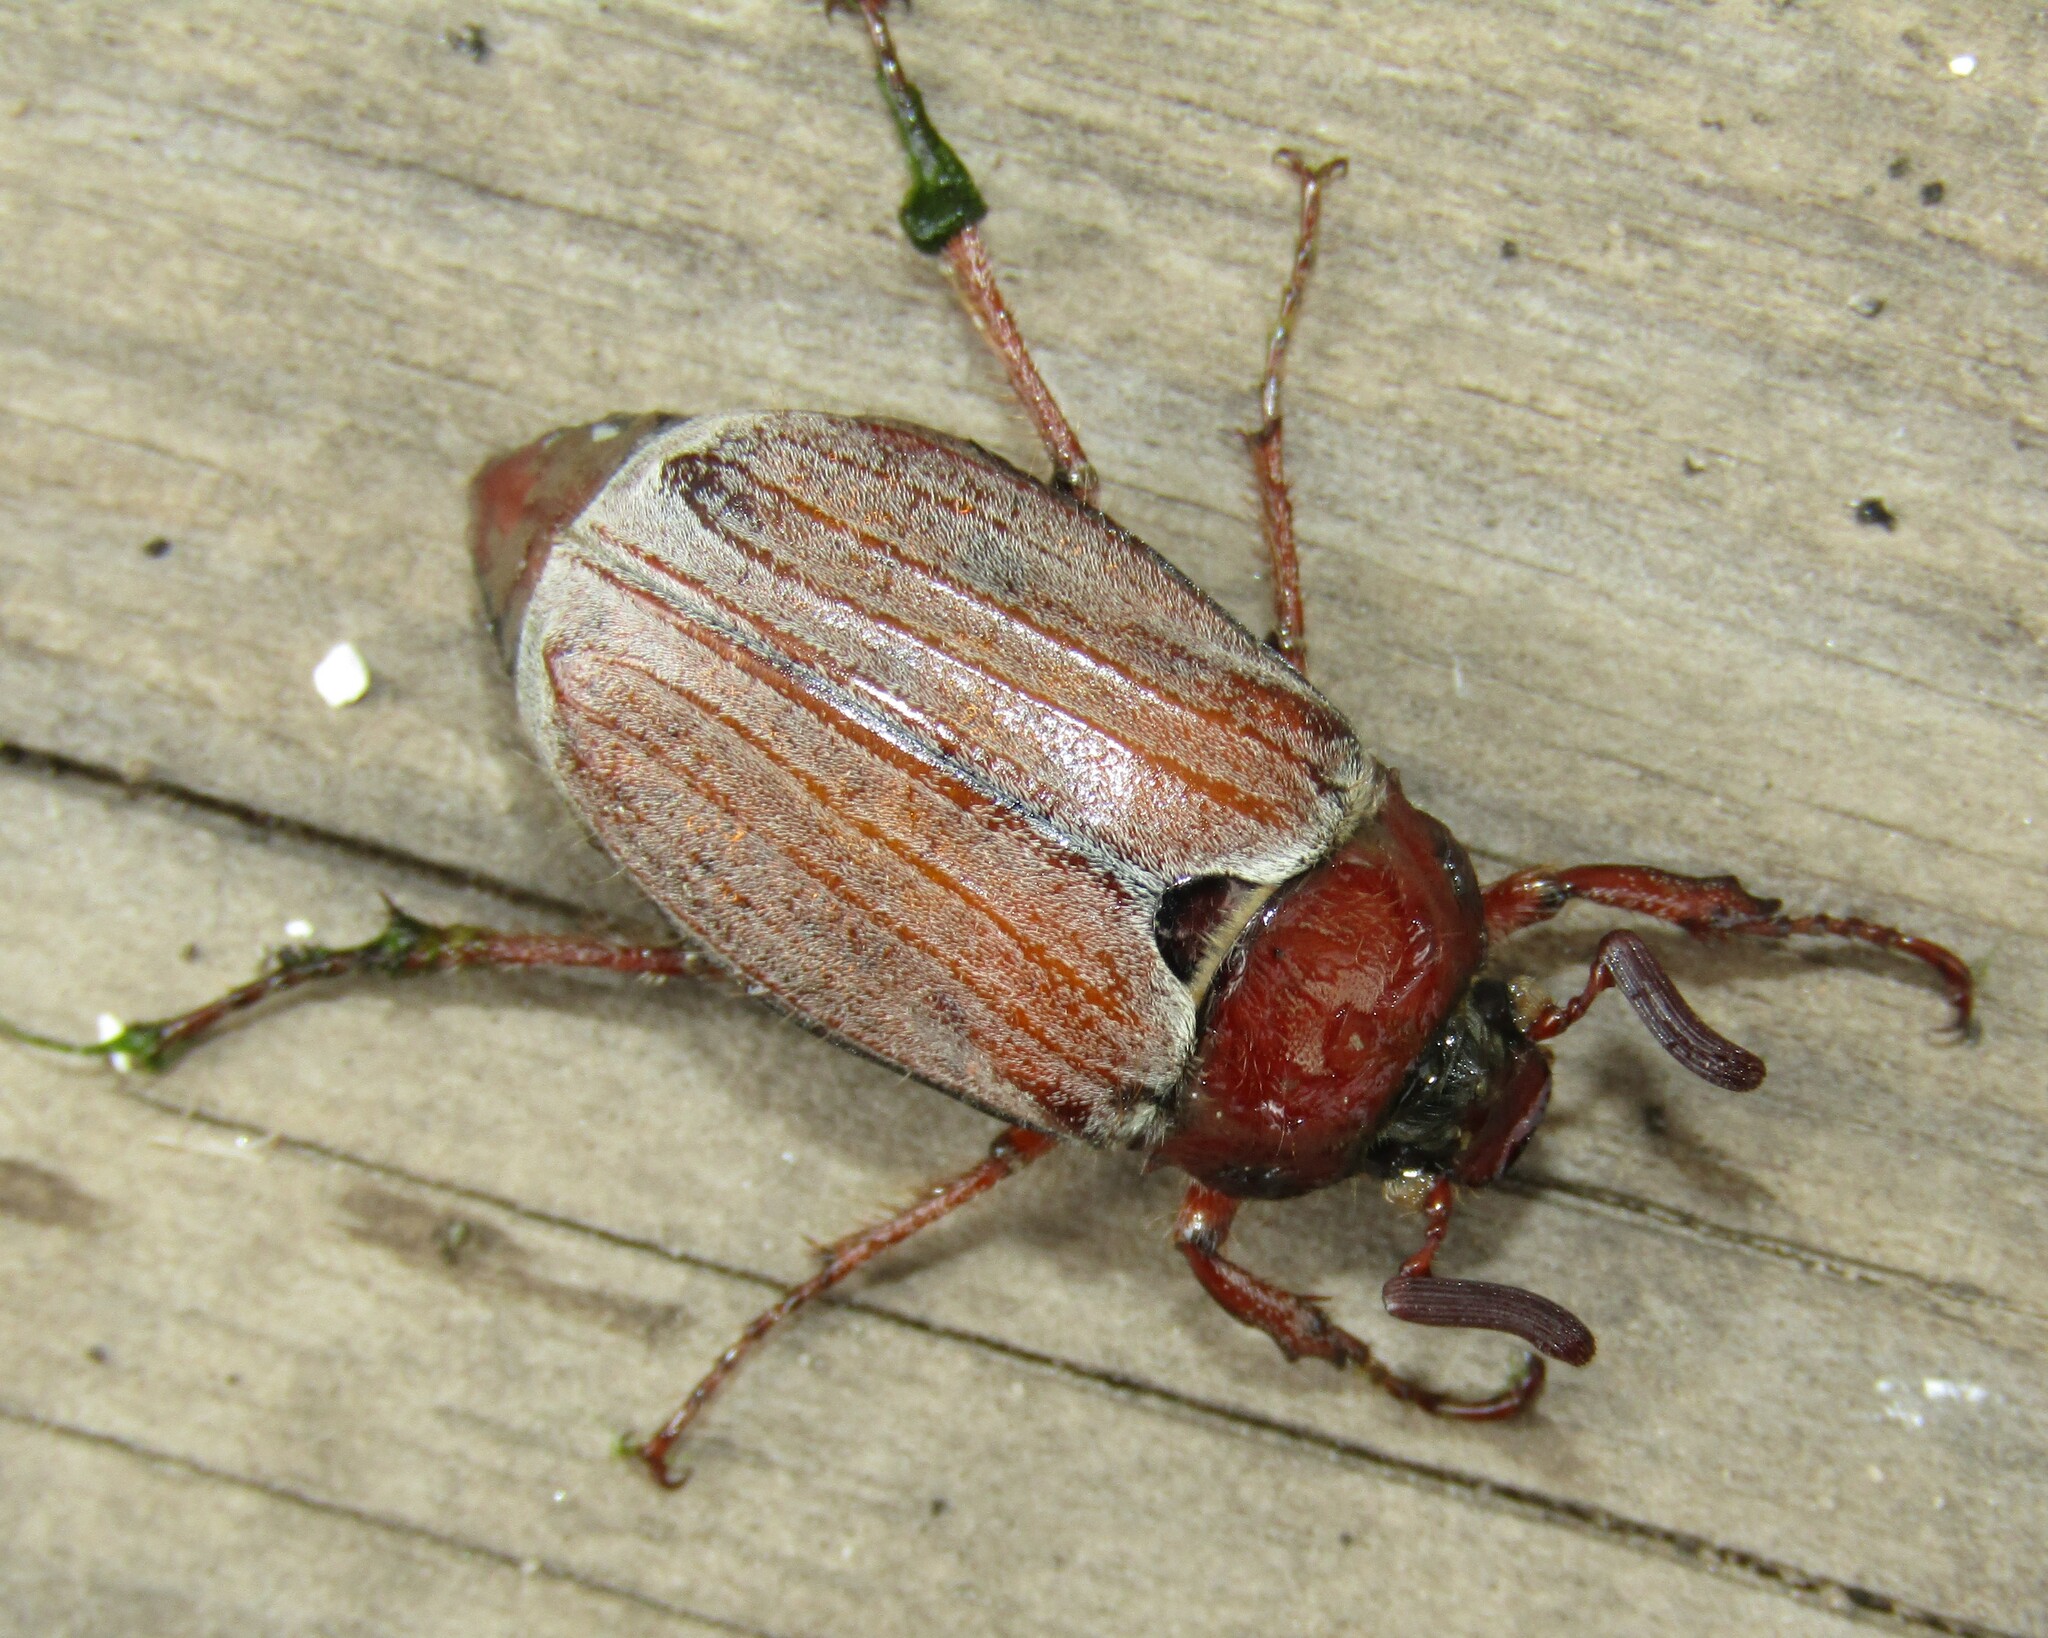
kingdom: Animalia
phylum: Arthropoda
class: Insecta
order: Coleoptera
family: Scarabaeidae
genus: Melolontha
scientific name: Melolontha hippocastani
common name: Chestnut cockchafer
